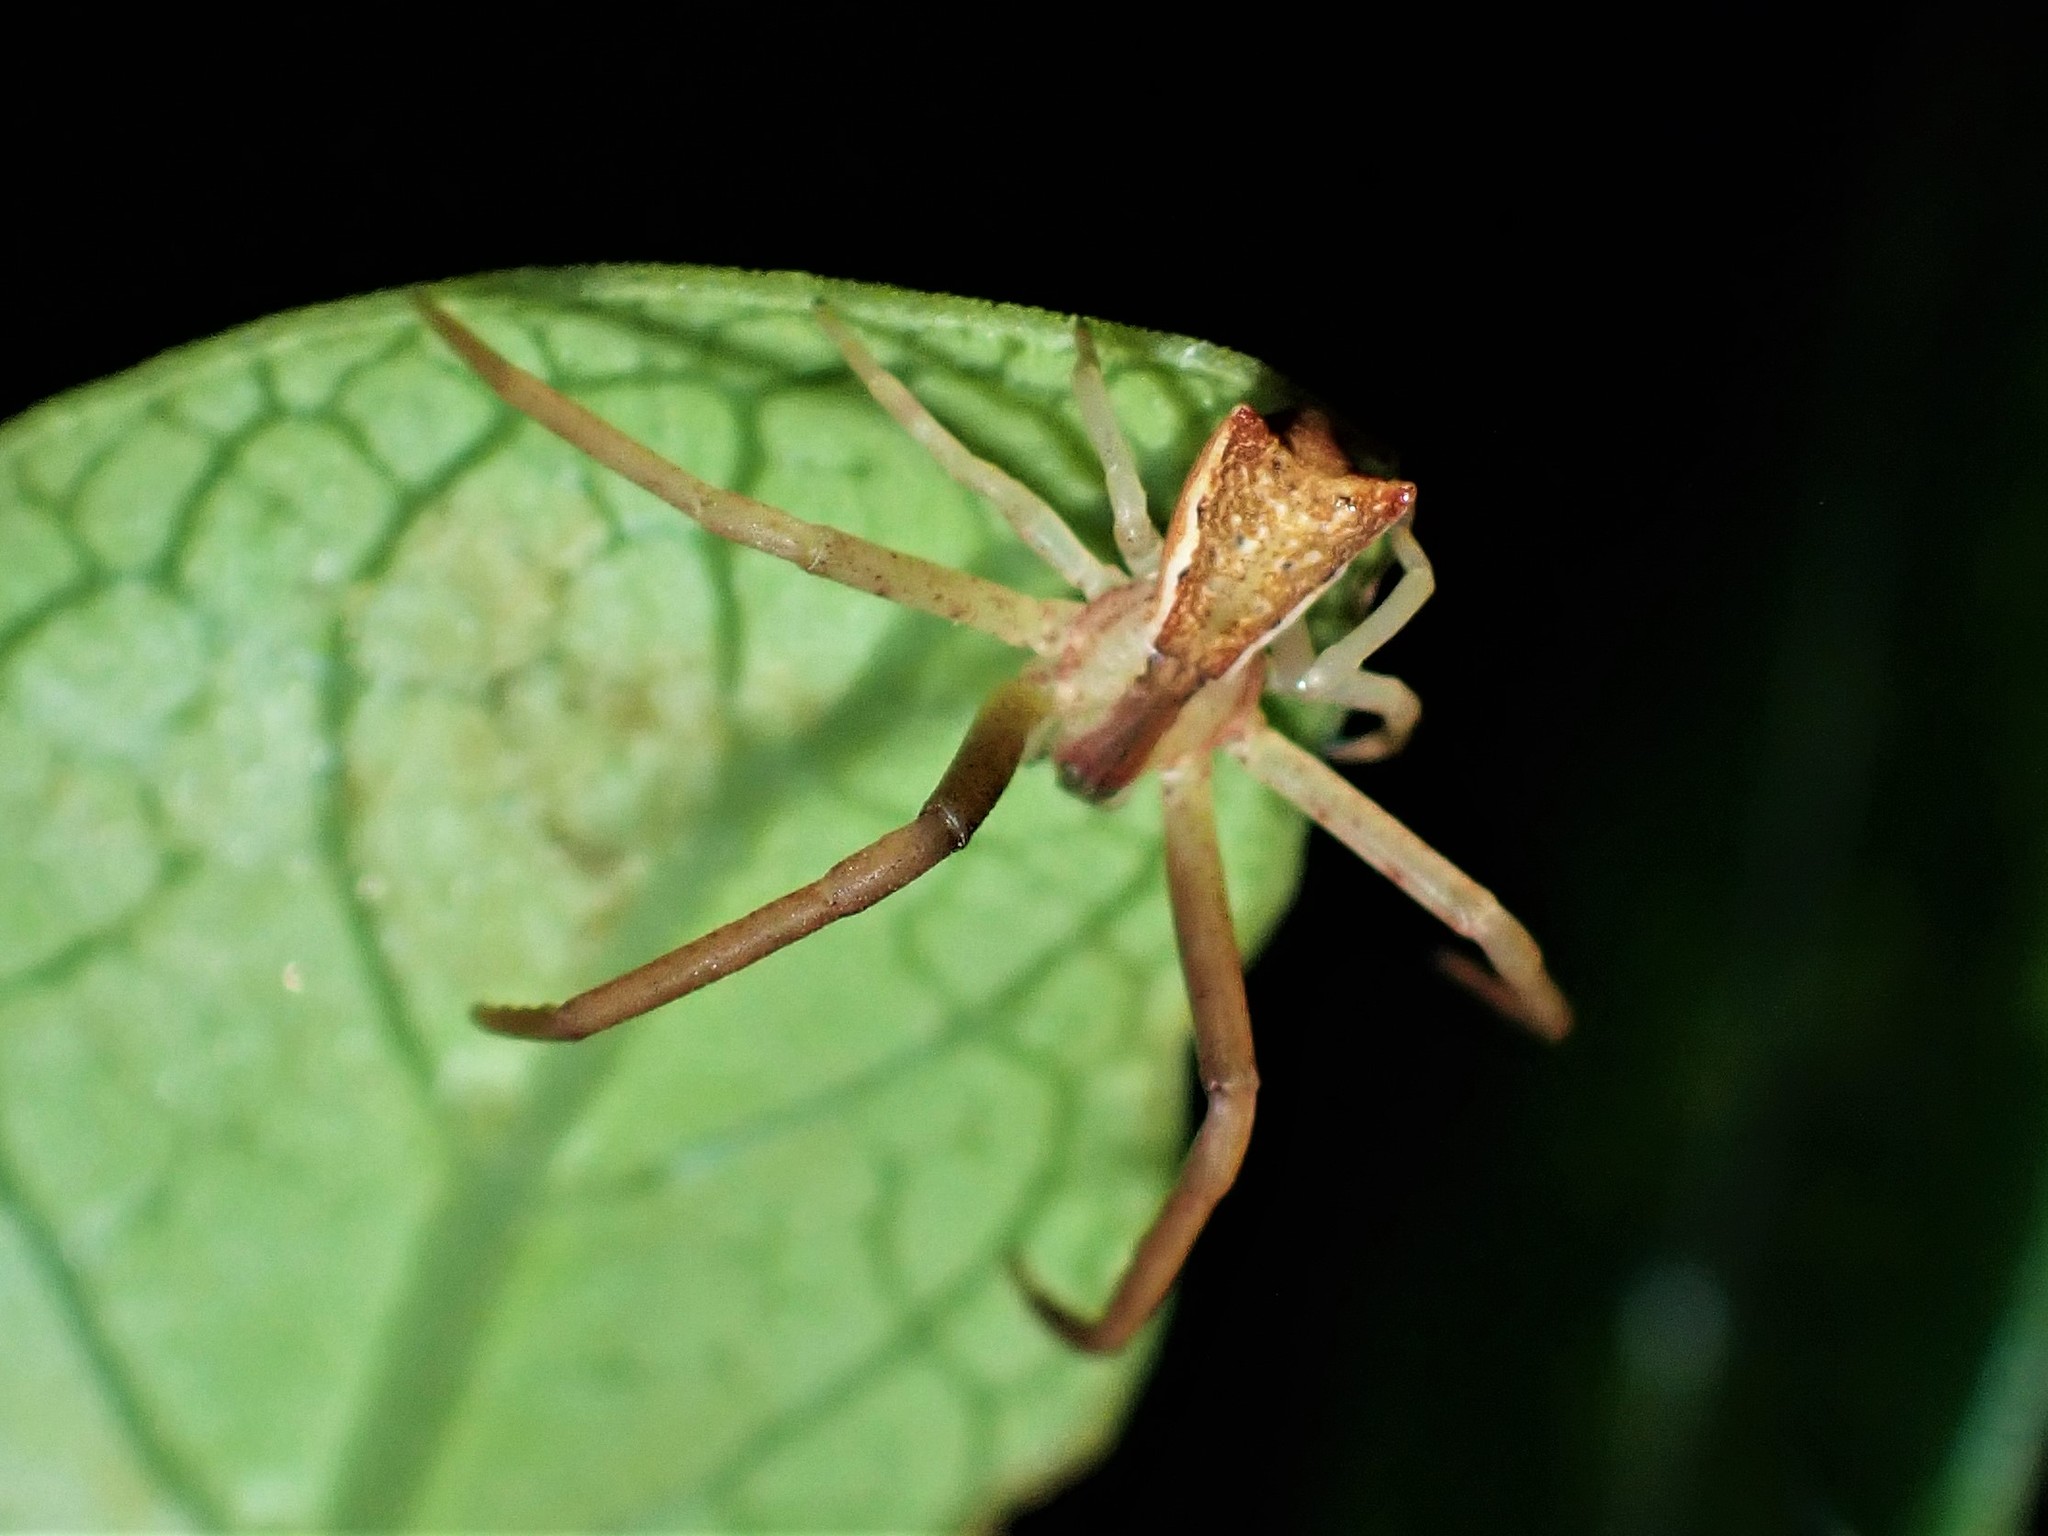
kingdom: Animalia
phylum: Arthropoda
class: Arachnida
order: Araneae
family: Thomisidae
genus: Sidymella
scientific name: Sidymella trapezia
